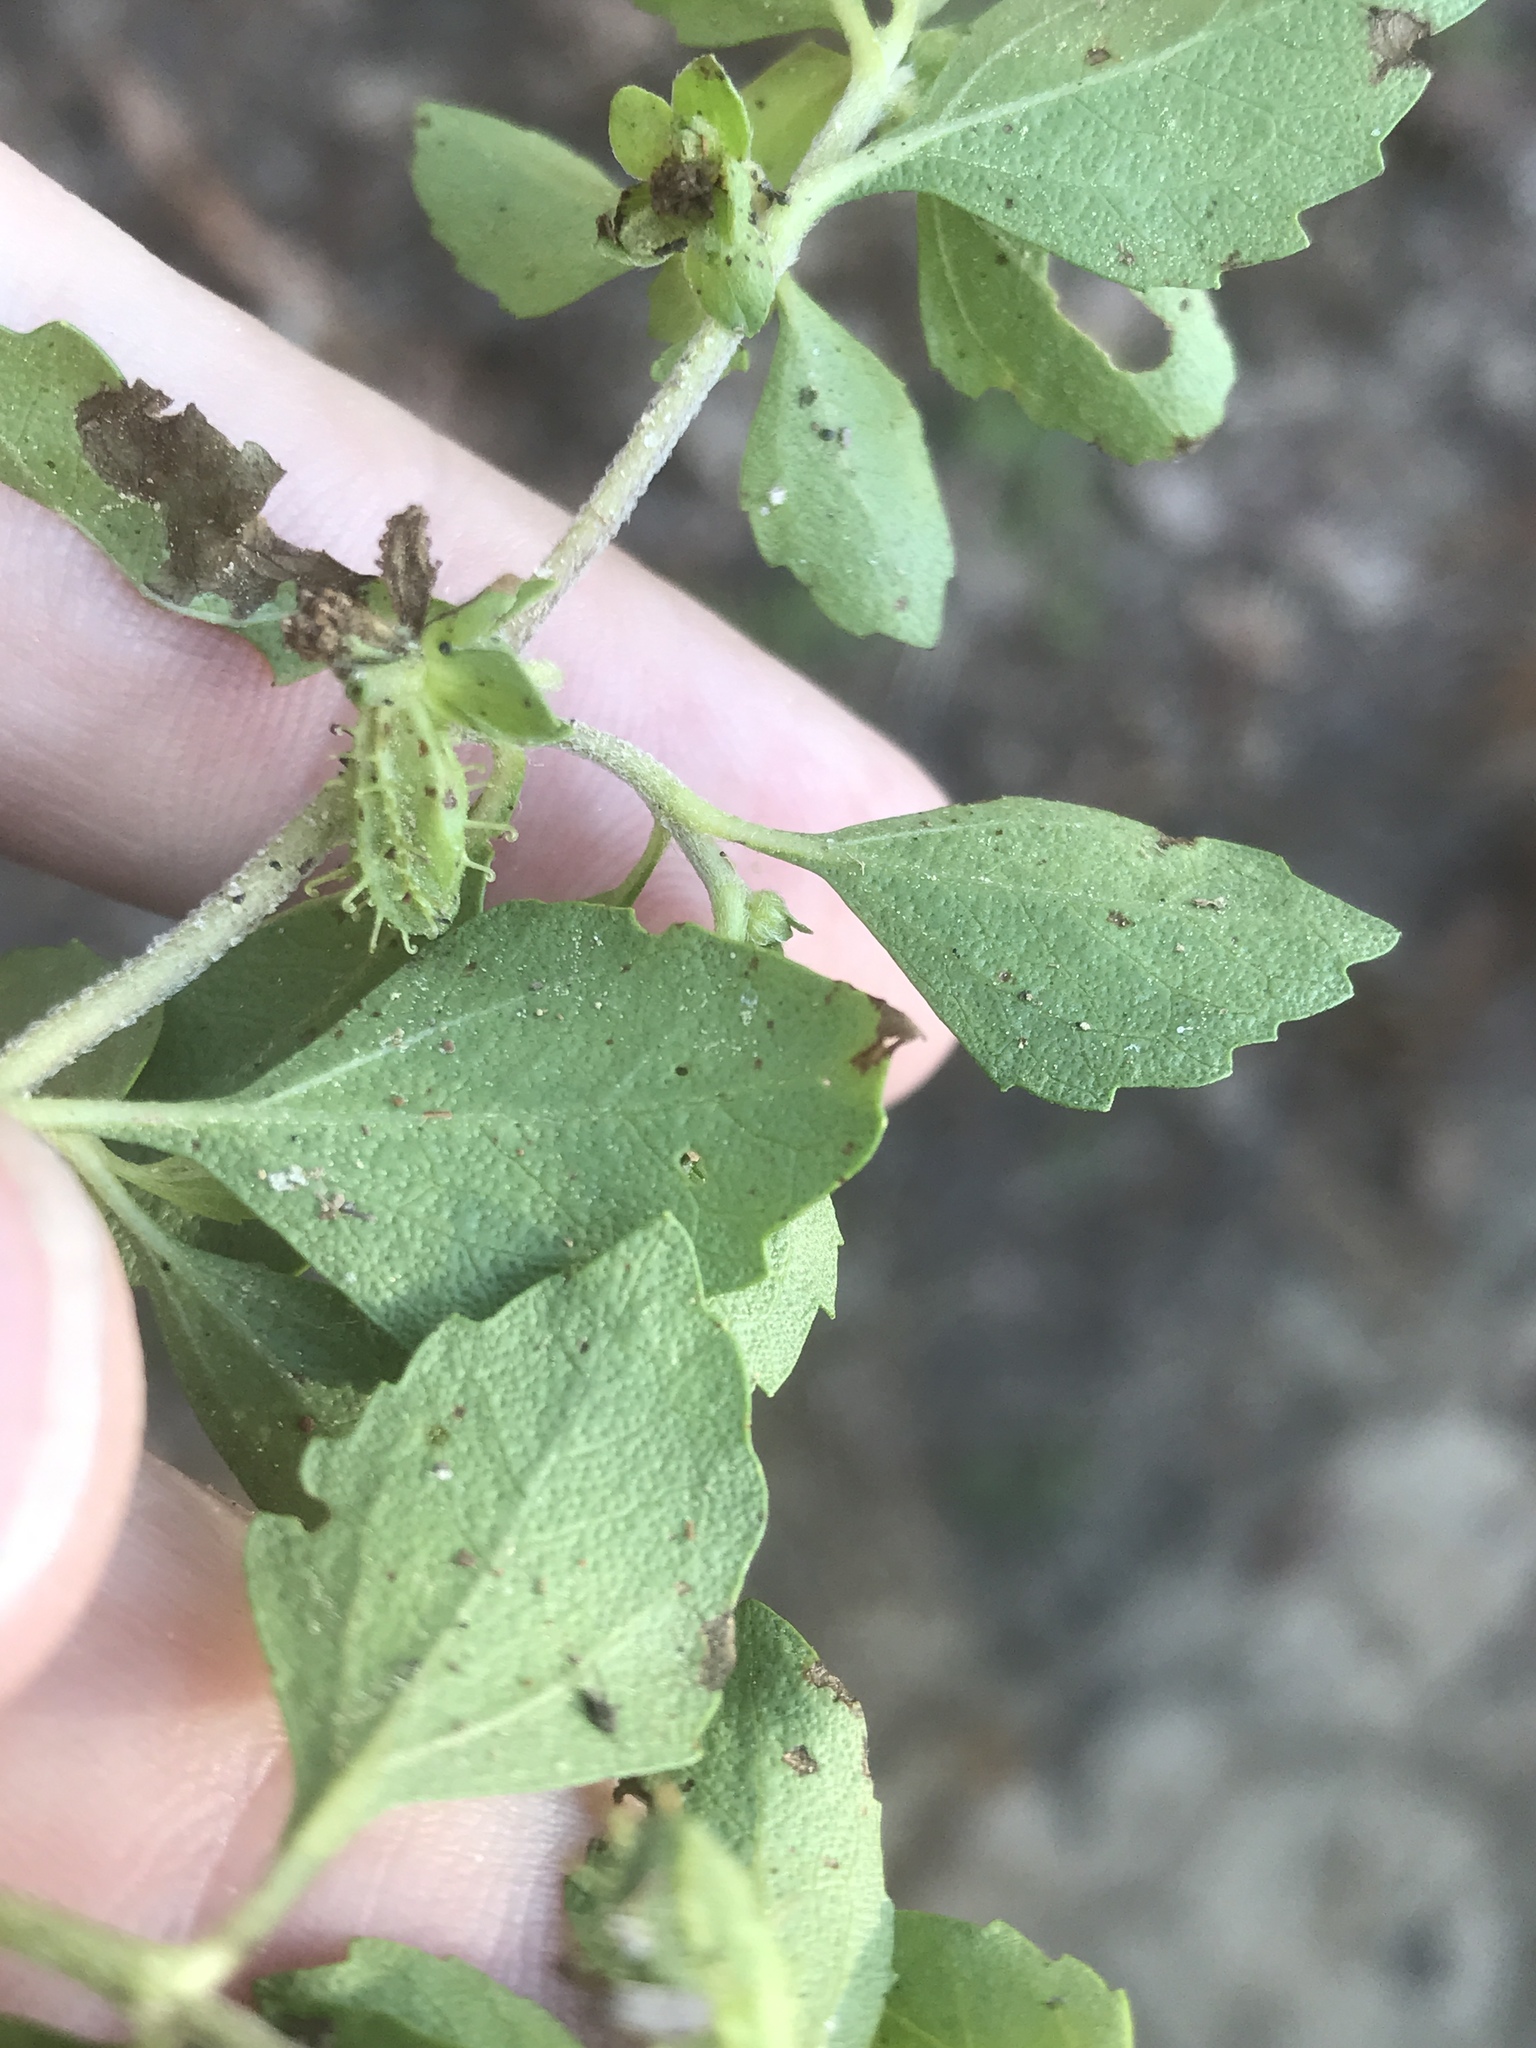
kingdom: Plantae
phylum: Tracheophyta
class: Magnoliopsida
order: Asterales
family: Asteraceae
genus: Acanthospermum
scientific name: Acanthospermum australe
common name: Paraguayan starbur
